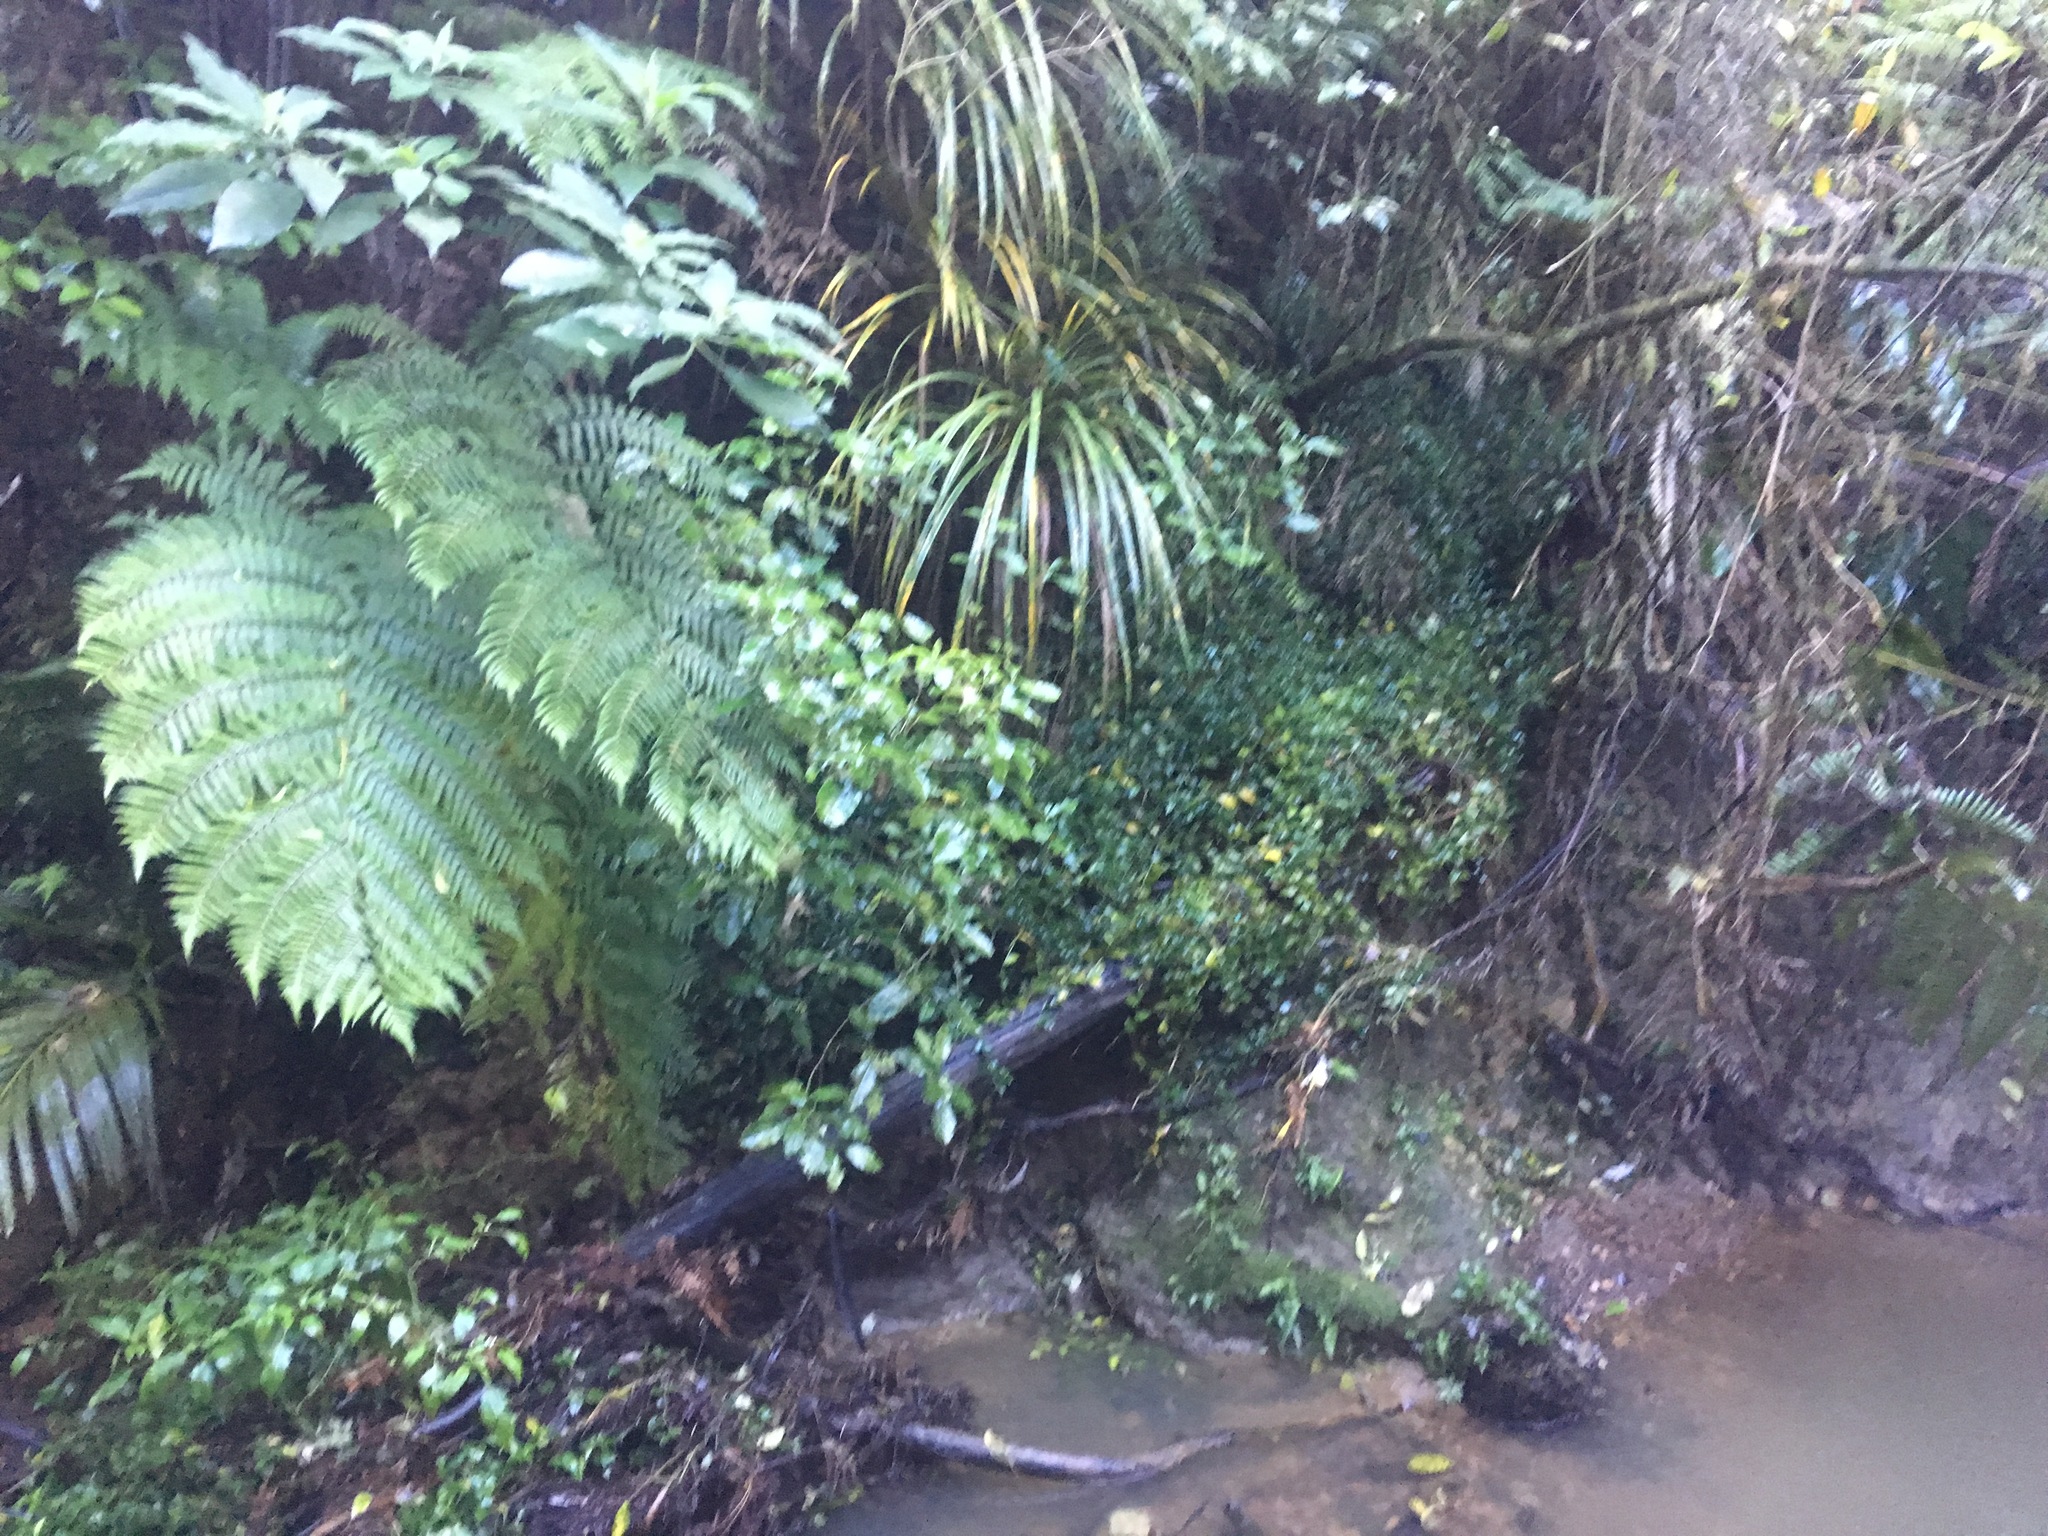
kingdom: Plantae
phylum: Tracheophyta
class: Liliopsida
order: Commelinales
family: Commelinaceae
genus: Tradescantia
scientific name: Tradescantia fluminensis
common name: Wandering-jew
